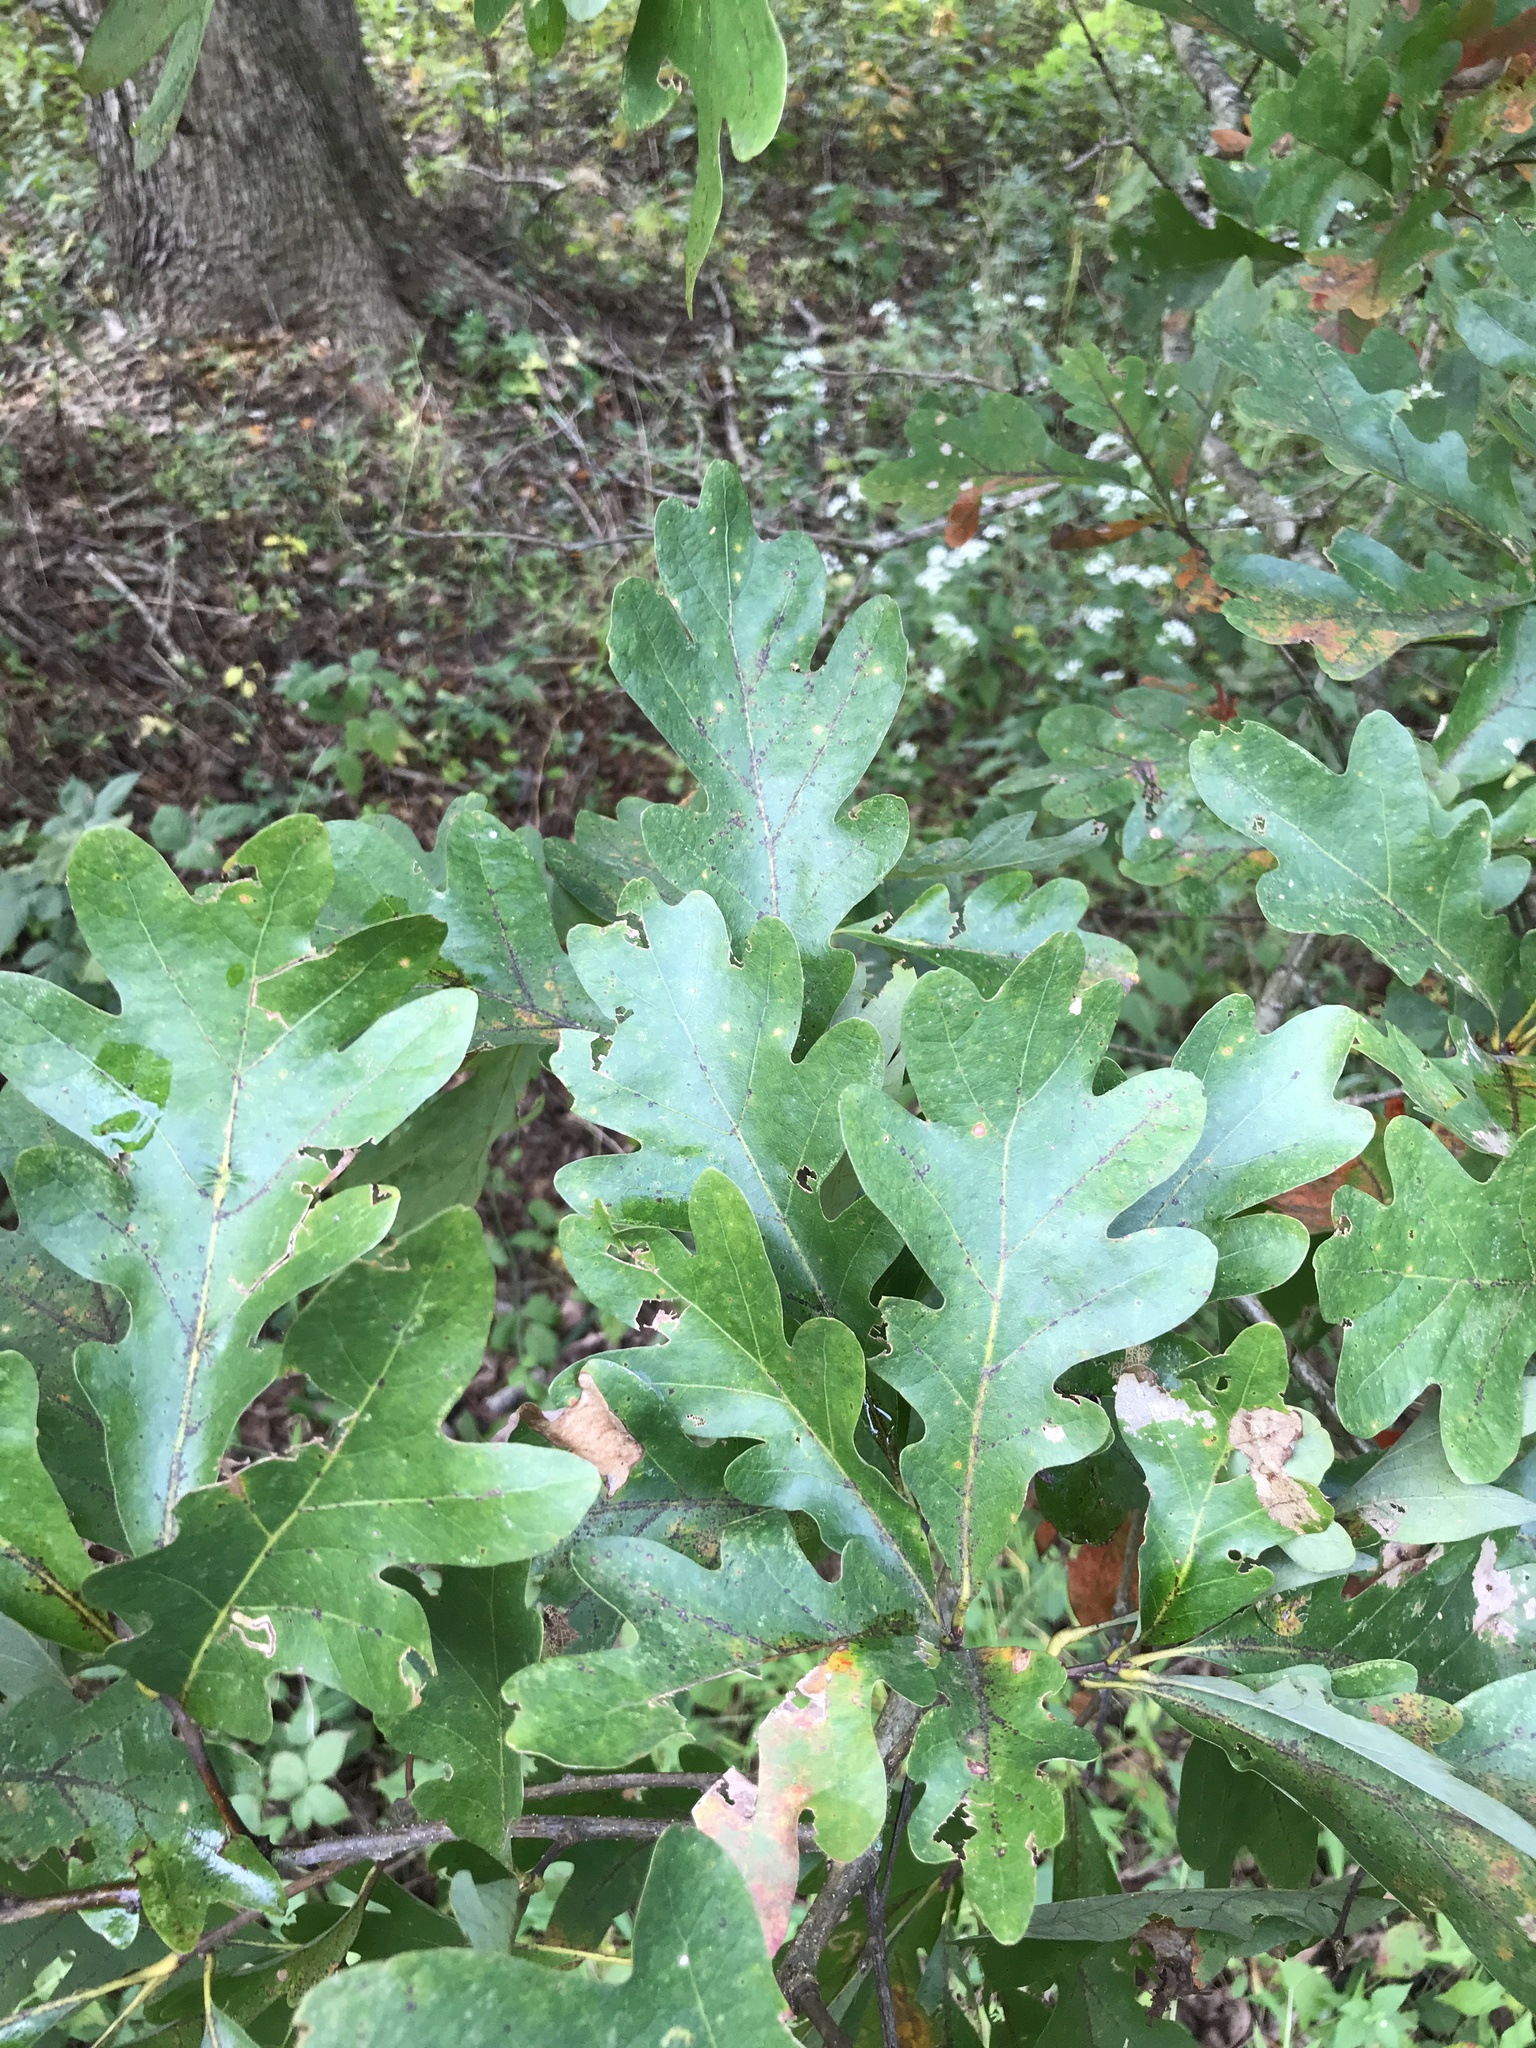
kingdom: Plantae
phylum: Tracheophyta
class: Magnoliopsida
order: Fagales
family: Fagaceae
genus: Quercus
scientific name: Quercus alba
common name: White oak
